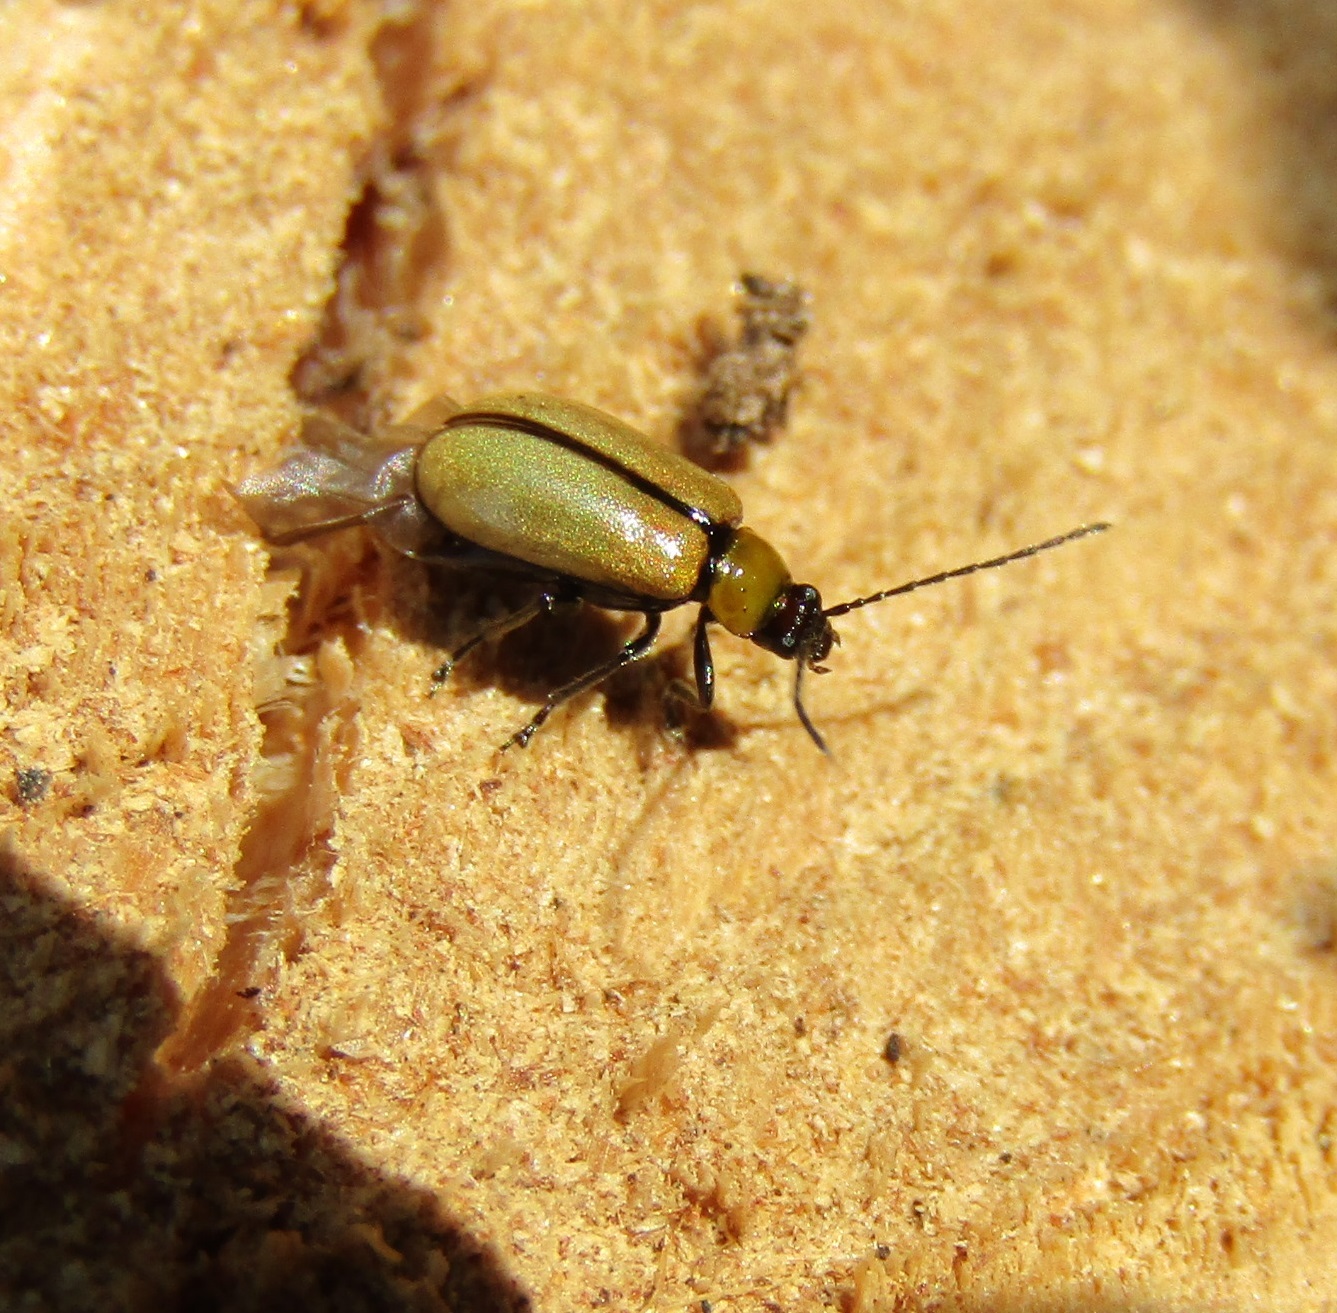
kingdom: Animalia
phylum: Arthropoda
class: Insecta
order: Coleoptera
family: Chrysomelidae
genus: Adoxia
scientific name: Adoxia
